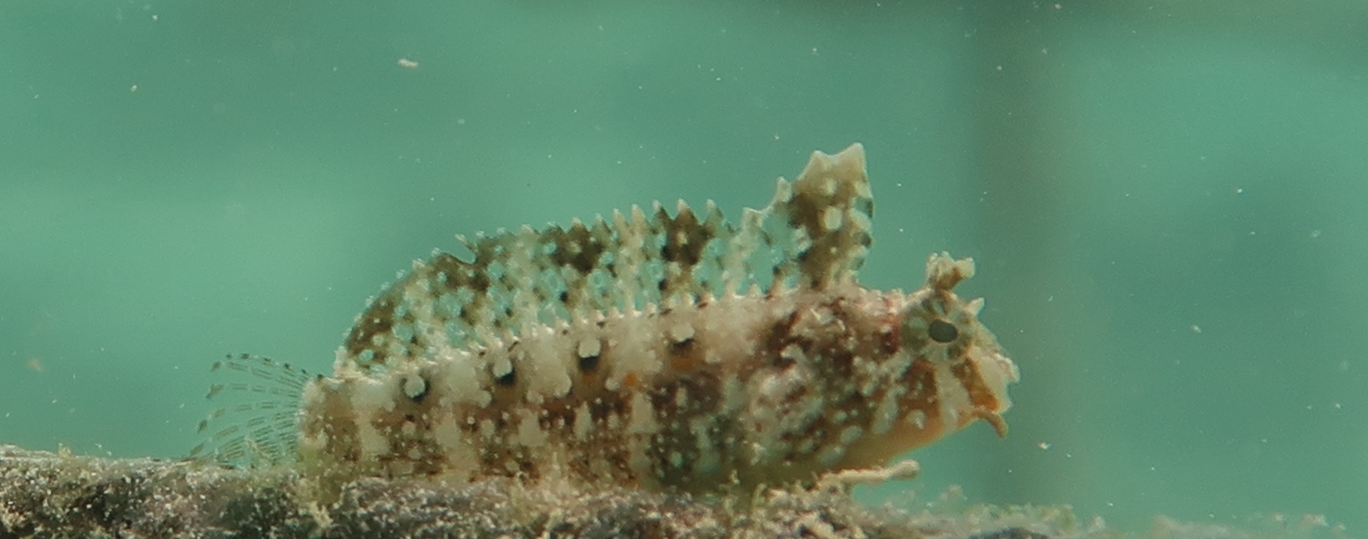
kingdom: Animalia
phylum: Chordata
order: Perciformes
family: Blenniidae
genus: Petroscirtes
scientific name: Petroscirtes mitratus
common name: Floral blenny
